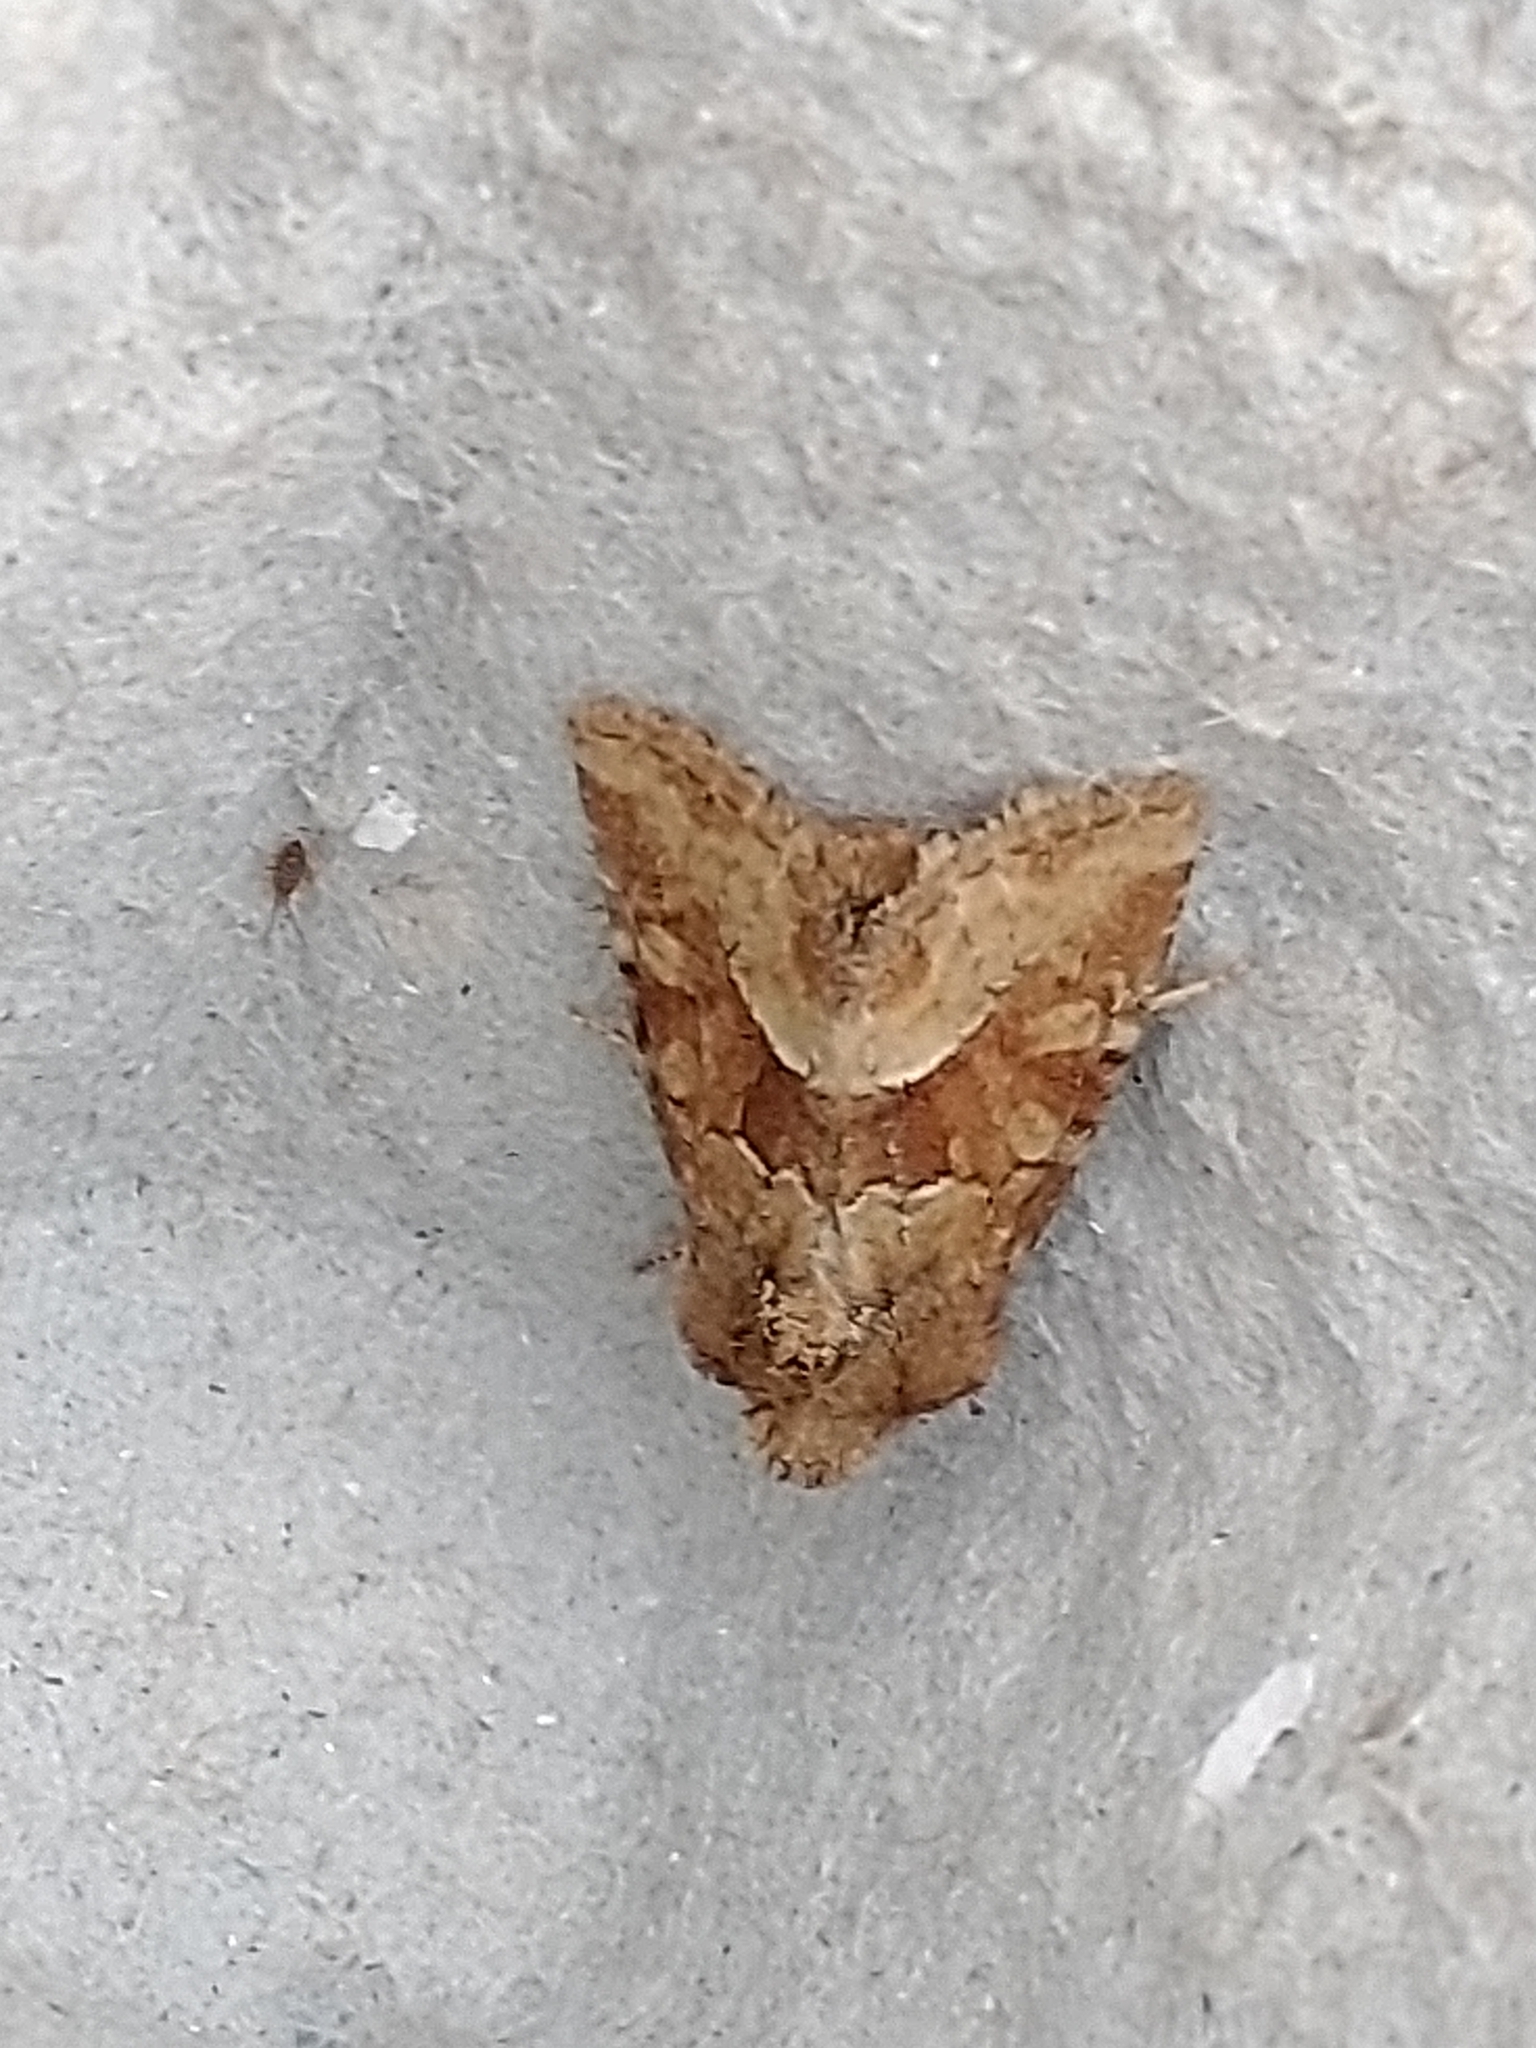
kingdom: Animalia
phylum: Arthropoda
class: Insecta
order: Lepidoptera
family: Noctuidae
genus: Oligia
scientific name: Oligia fasciuncula
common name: Middle-barred minor
